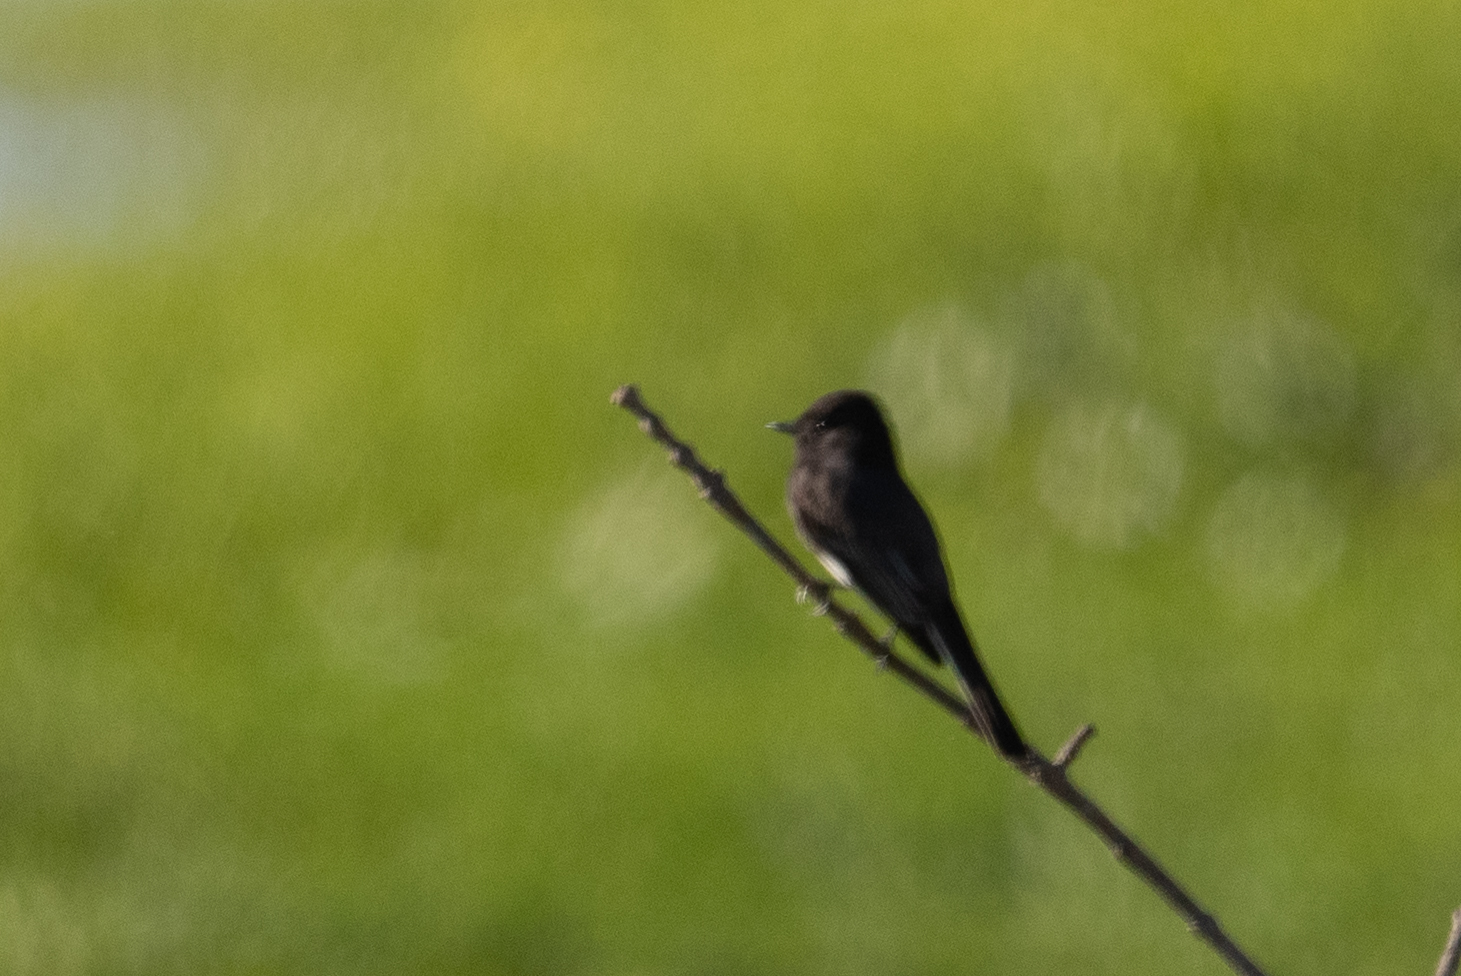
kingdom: Animalia
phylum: Chordata
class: Aves
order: Passeriformes
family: Tyrannidae
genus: Sayornis
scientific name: Sayornis nigricans
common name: Black phoebe
